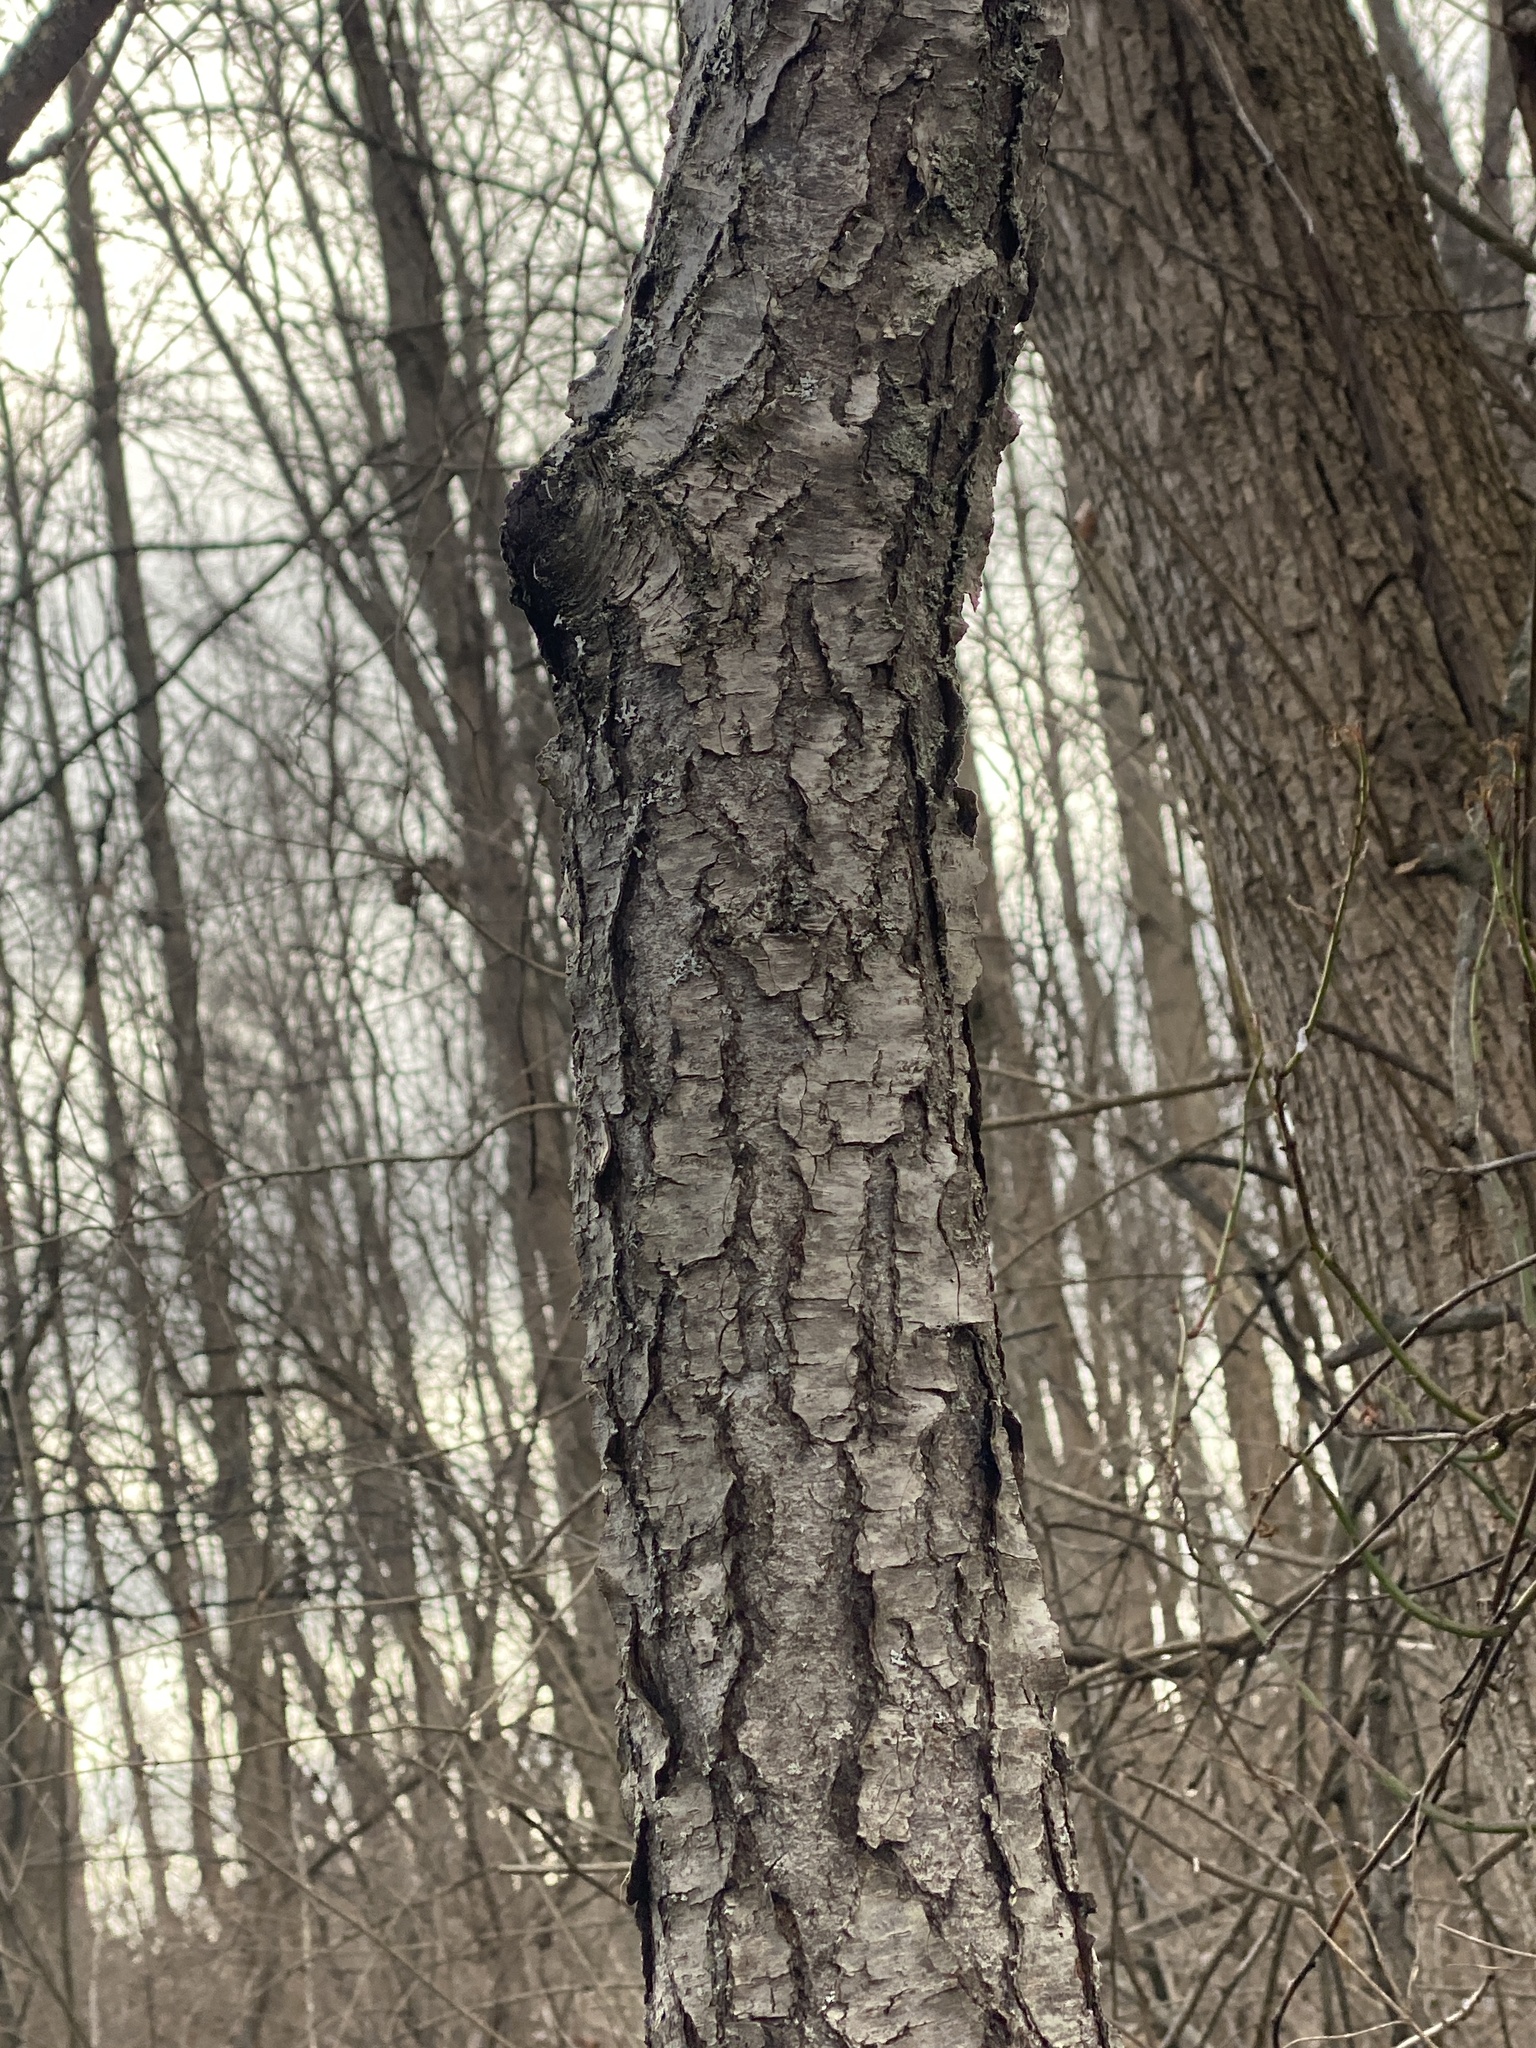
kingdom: Plantae
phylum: Tracheophyta
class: Magnoliopsida
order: Rosales
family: Rosaceae
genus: Prunus
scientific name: Prunus serotina
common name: Black cherry
